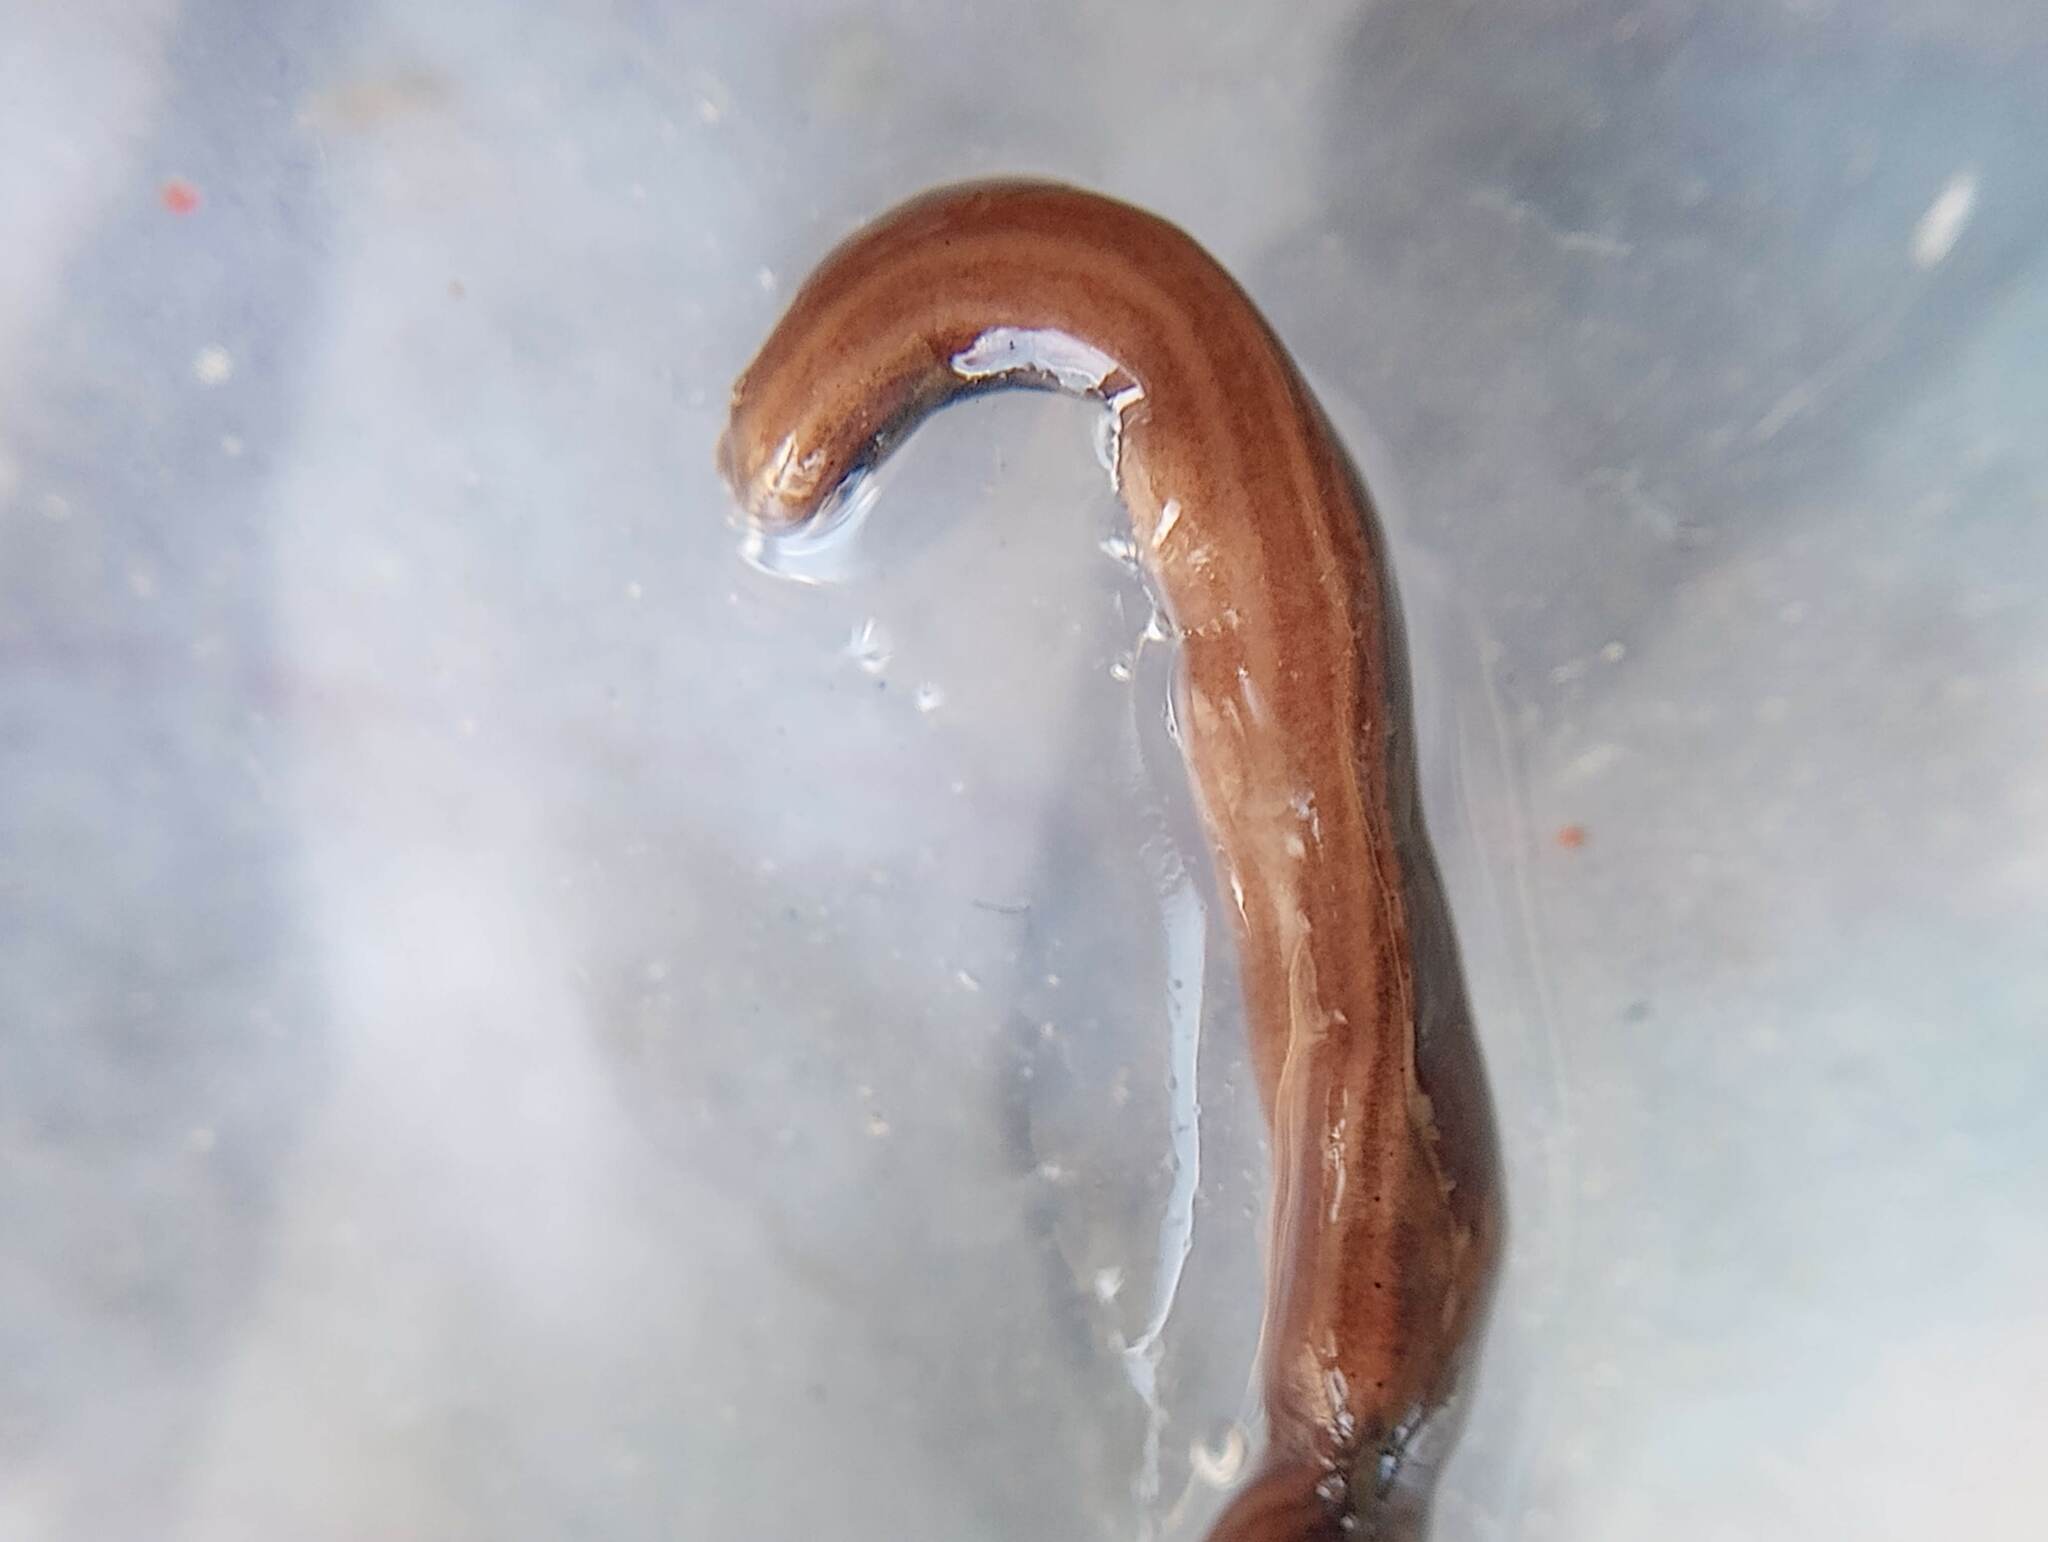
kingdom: Animalia
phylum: Platyhelminthes
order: Tricladida
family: Geoplanidae
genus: Parakontikia
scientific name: Parakontikia ventrolineata
